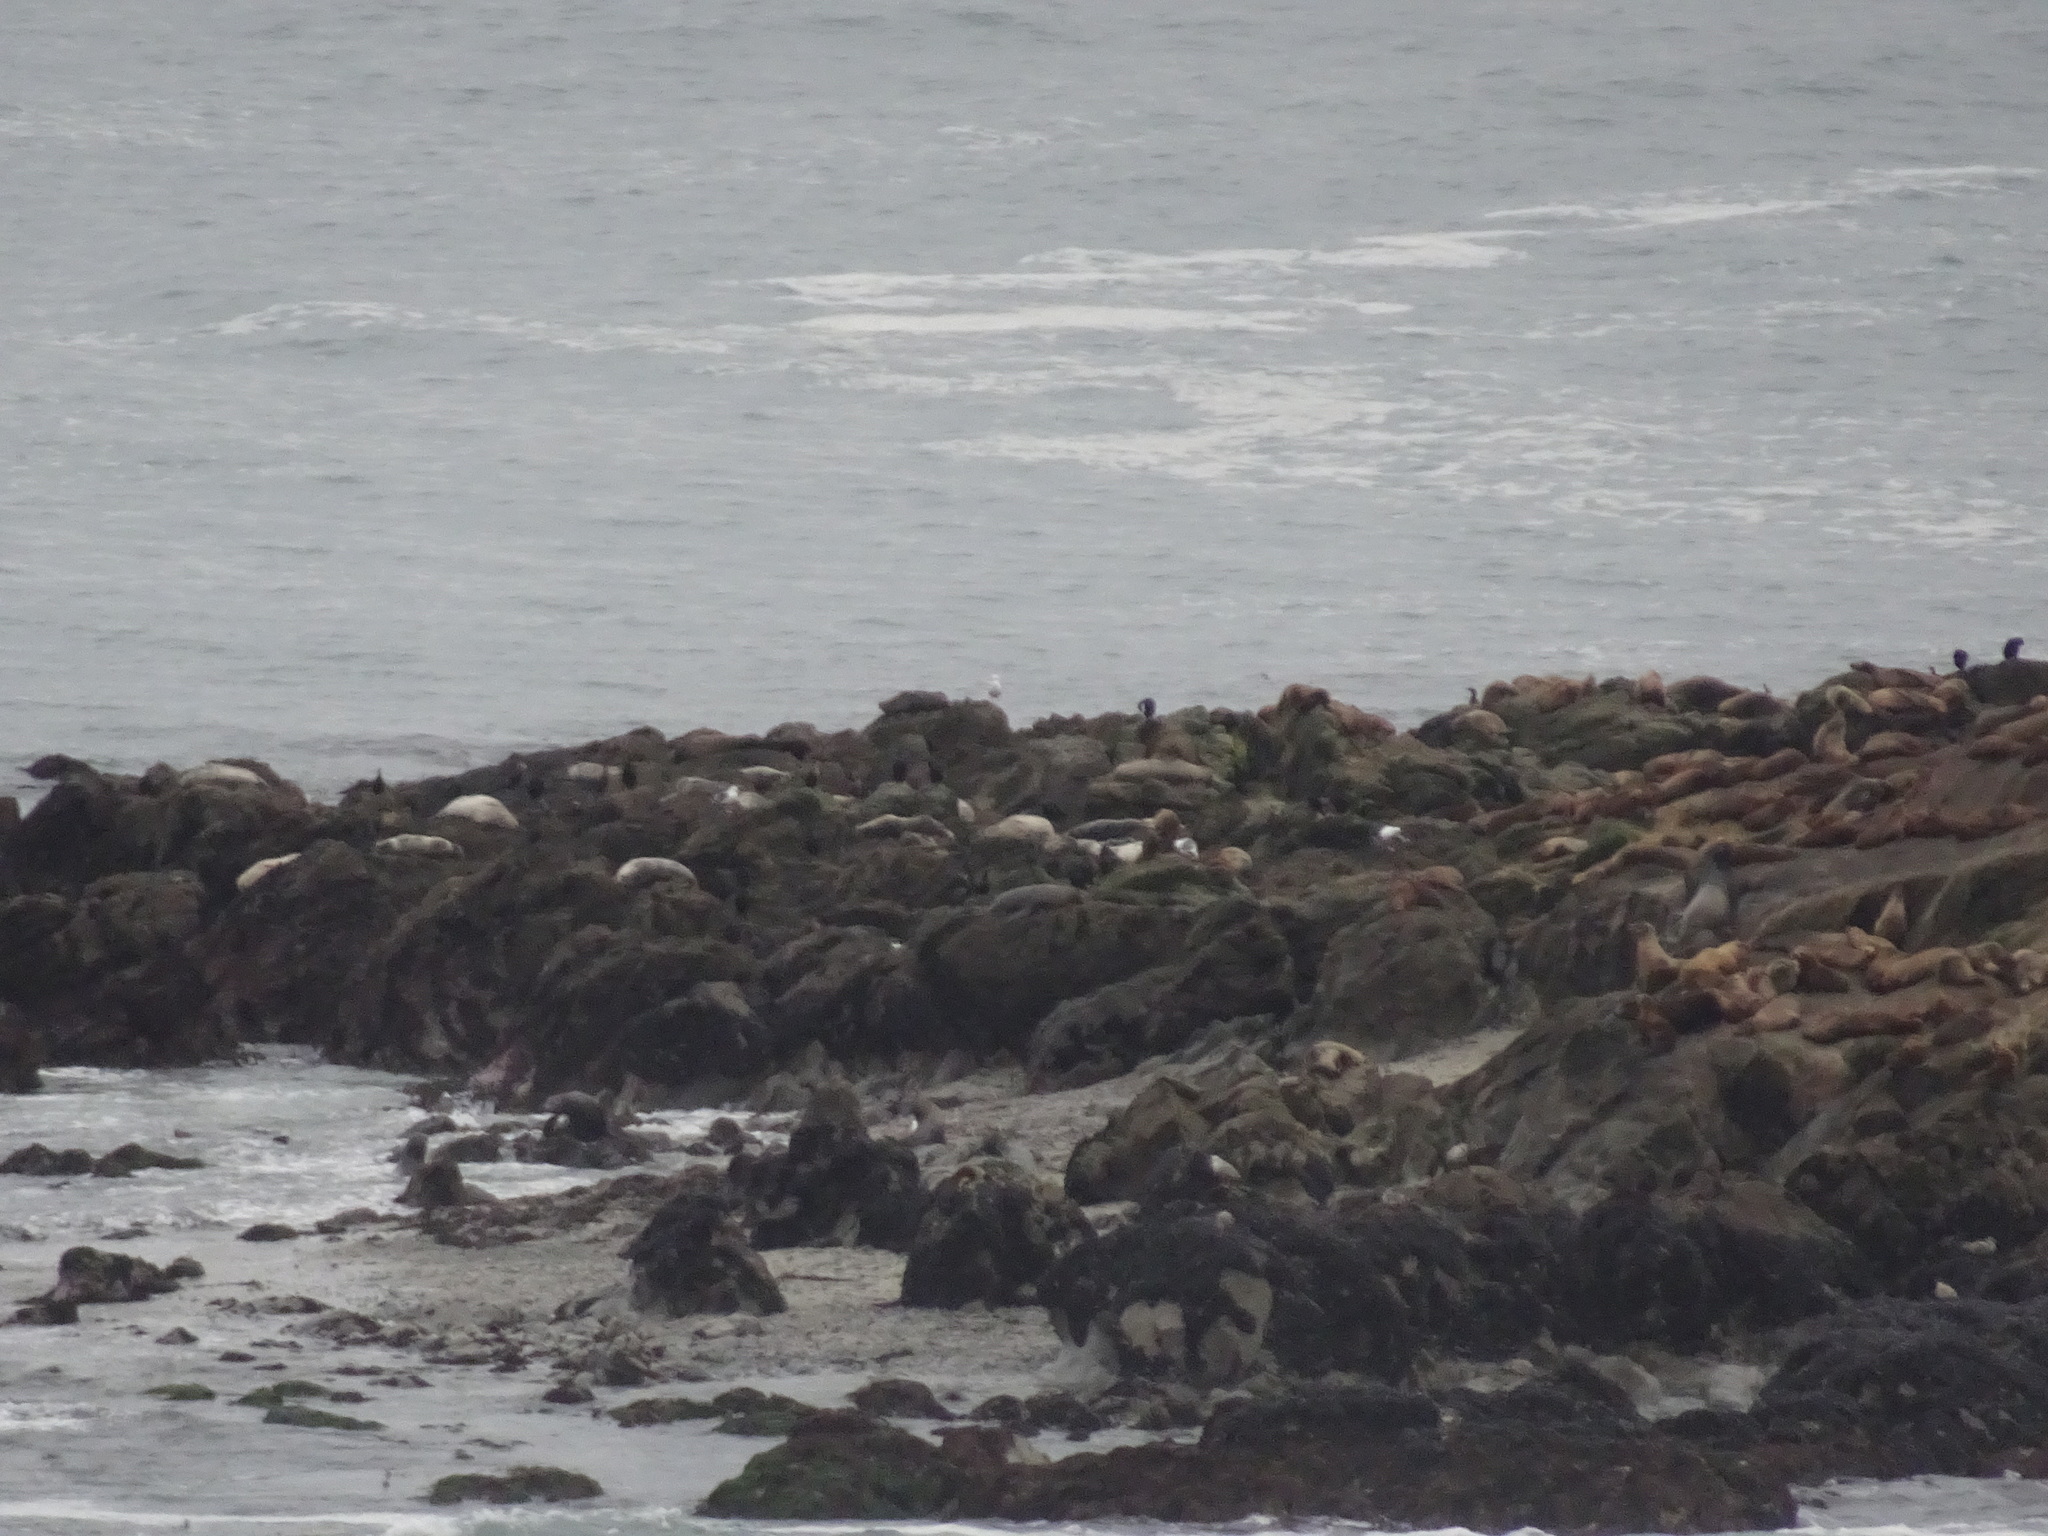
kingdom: Animalia
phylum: Chordata
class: Mammalia
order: Carnivora
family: Phocidae
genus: Phoca
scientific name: Phoca vitulina
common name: Harbor seal
